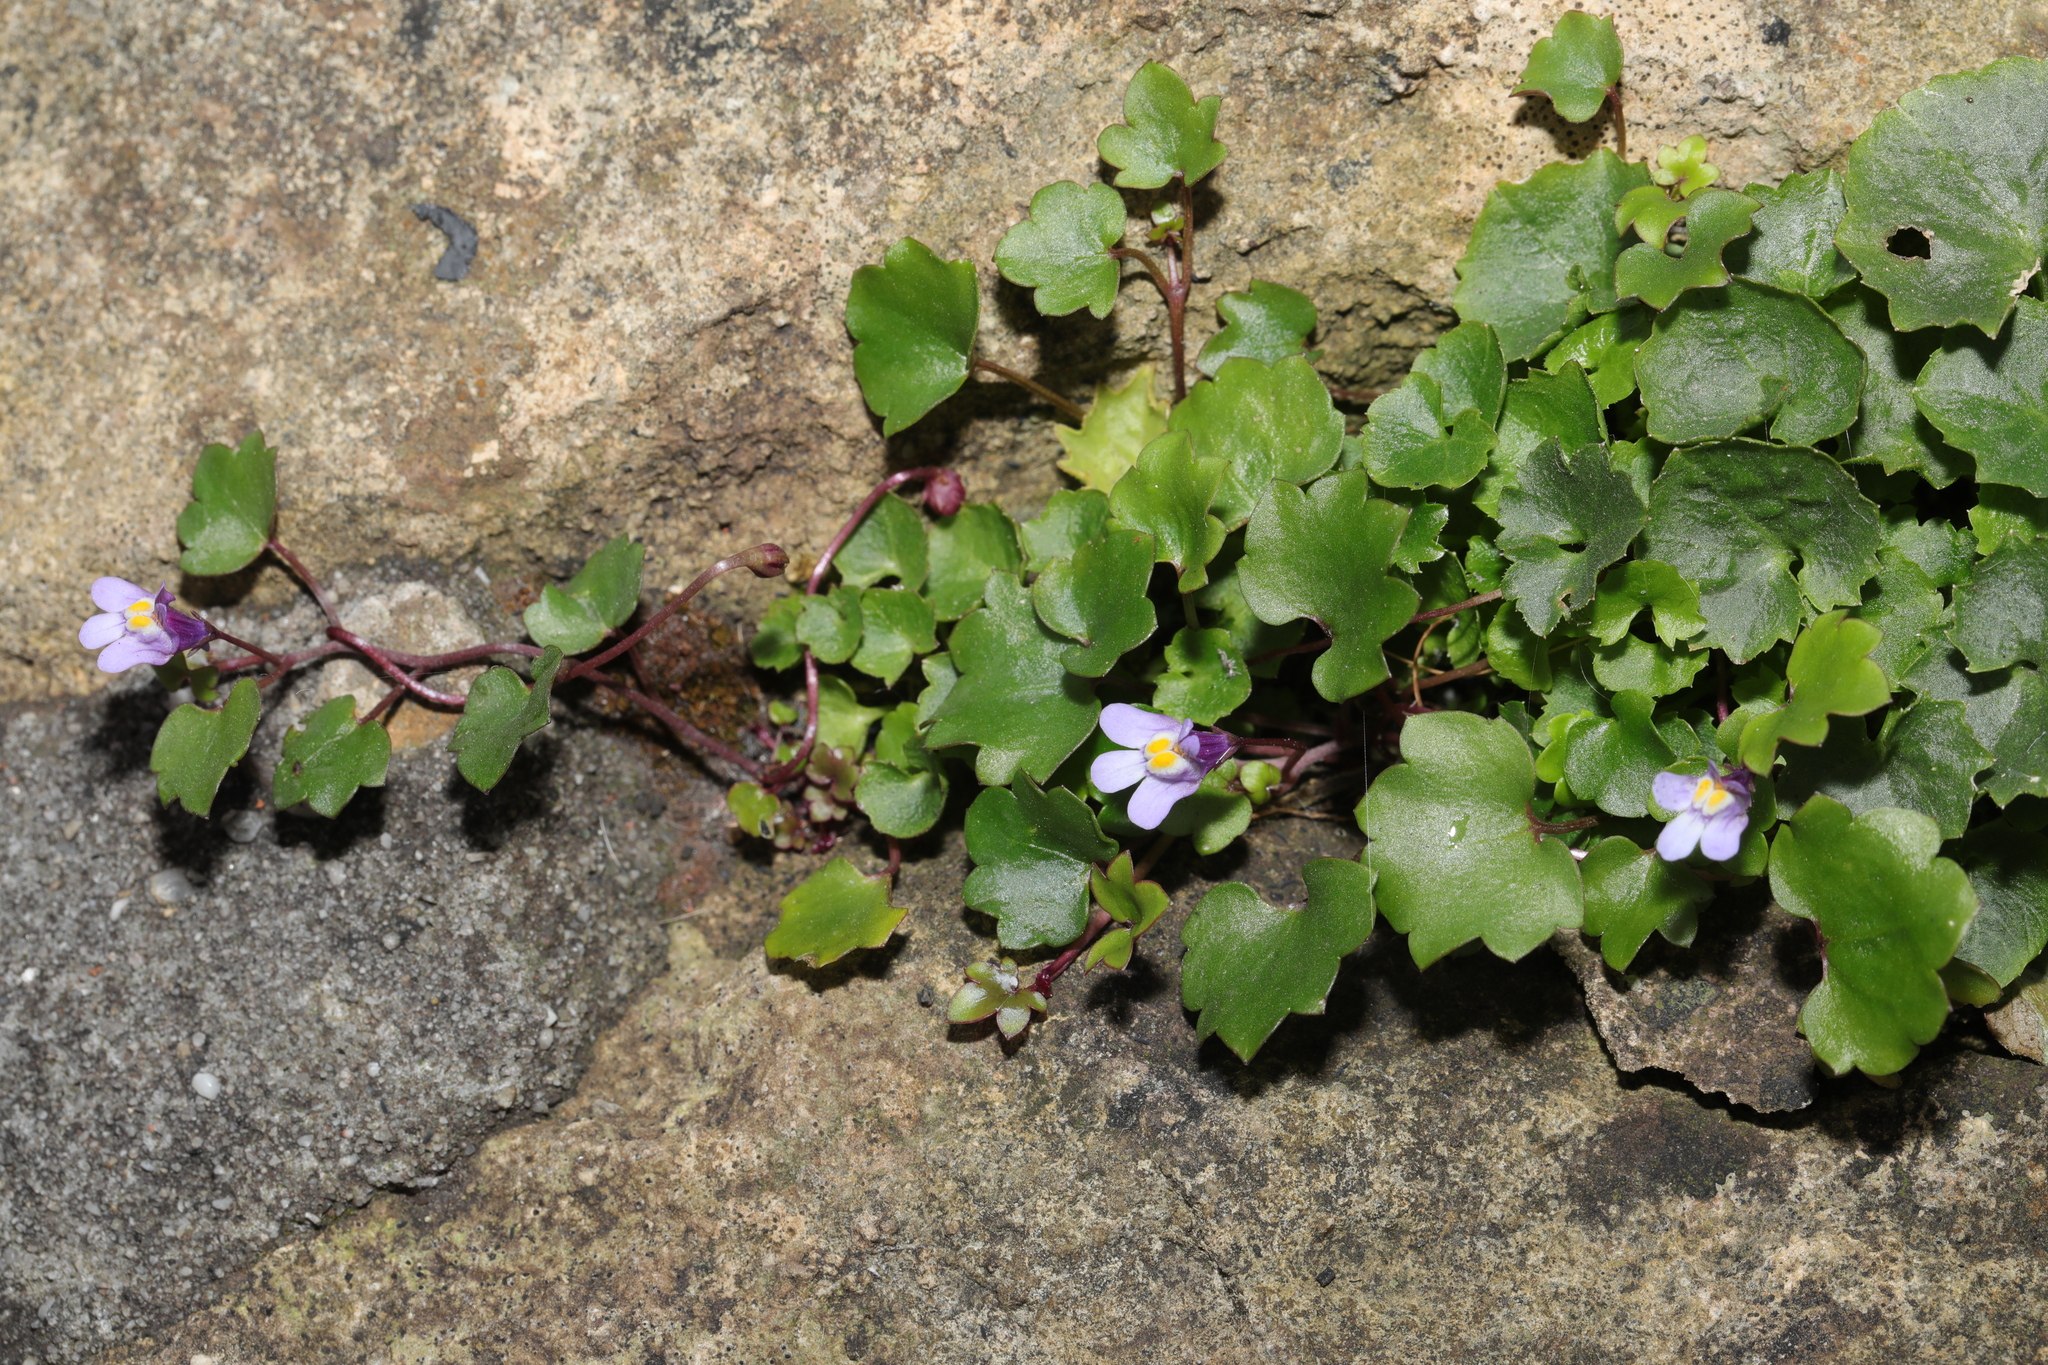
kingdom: Plantae
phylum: Tracheophyta
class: Magnoliopsida
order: Lamiales
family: Plantaginaceae
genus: Cymbalaria
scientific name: Cymbalaria muralis
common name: Ivy-leaved toadflax
